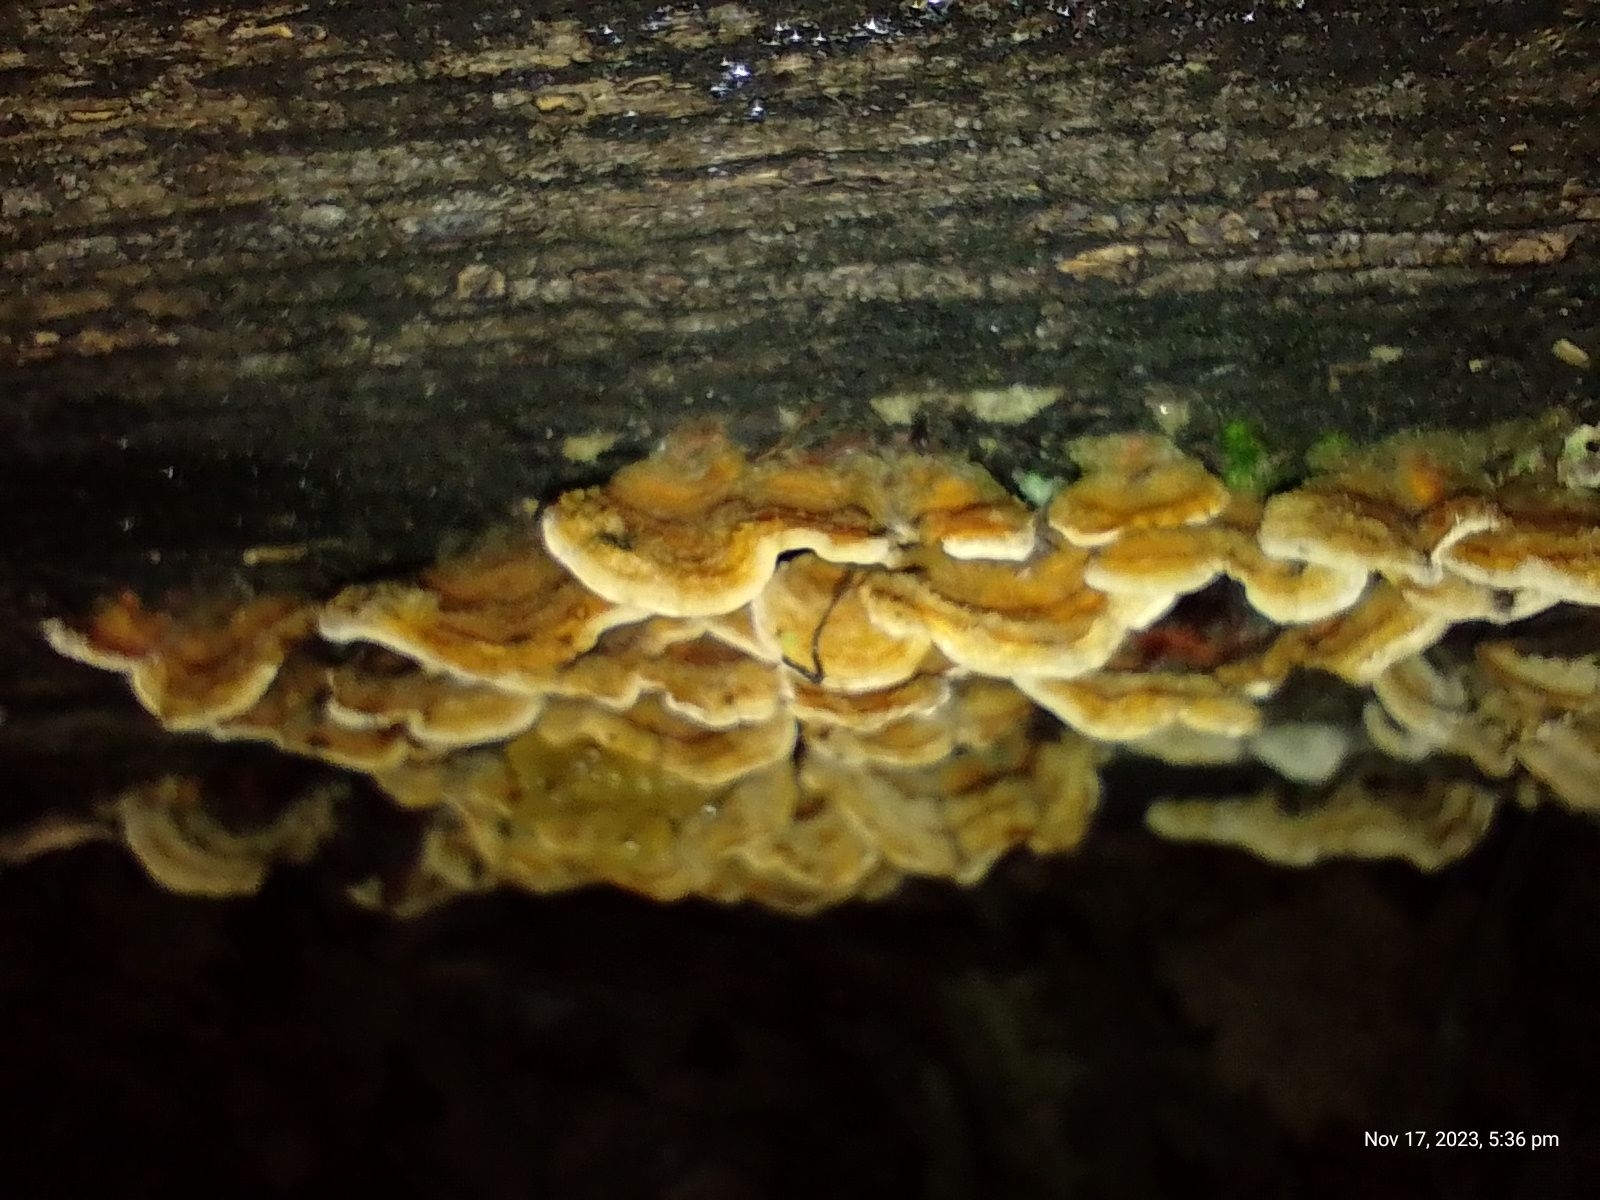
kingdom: Fungi
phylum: Basidiomycota
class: Agaricomycetes
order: Russulales
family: Stereaceae
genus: Stereum
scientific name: Stereum hirsutum
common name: Hairy curtain crust
